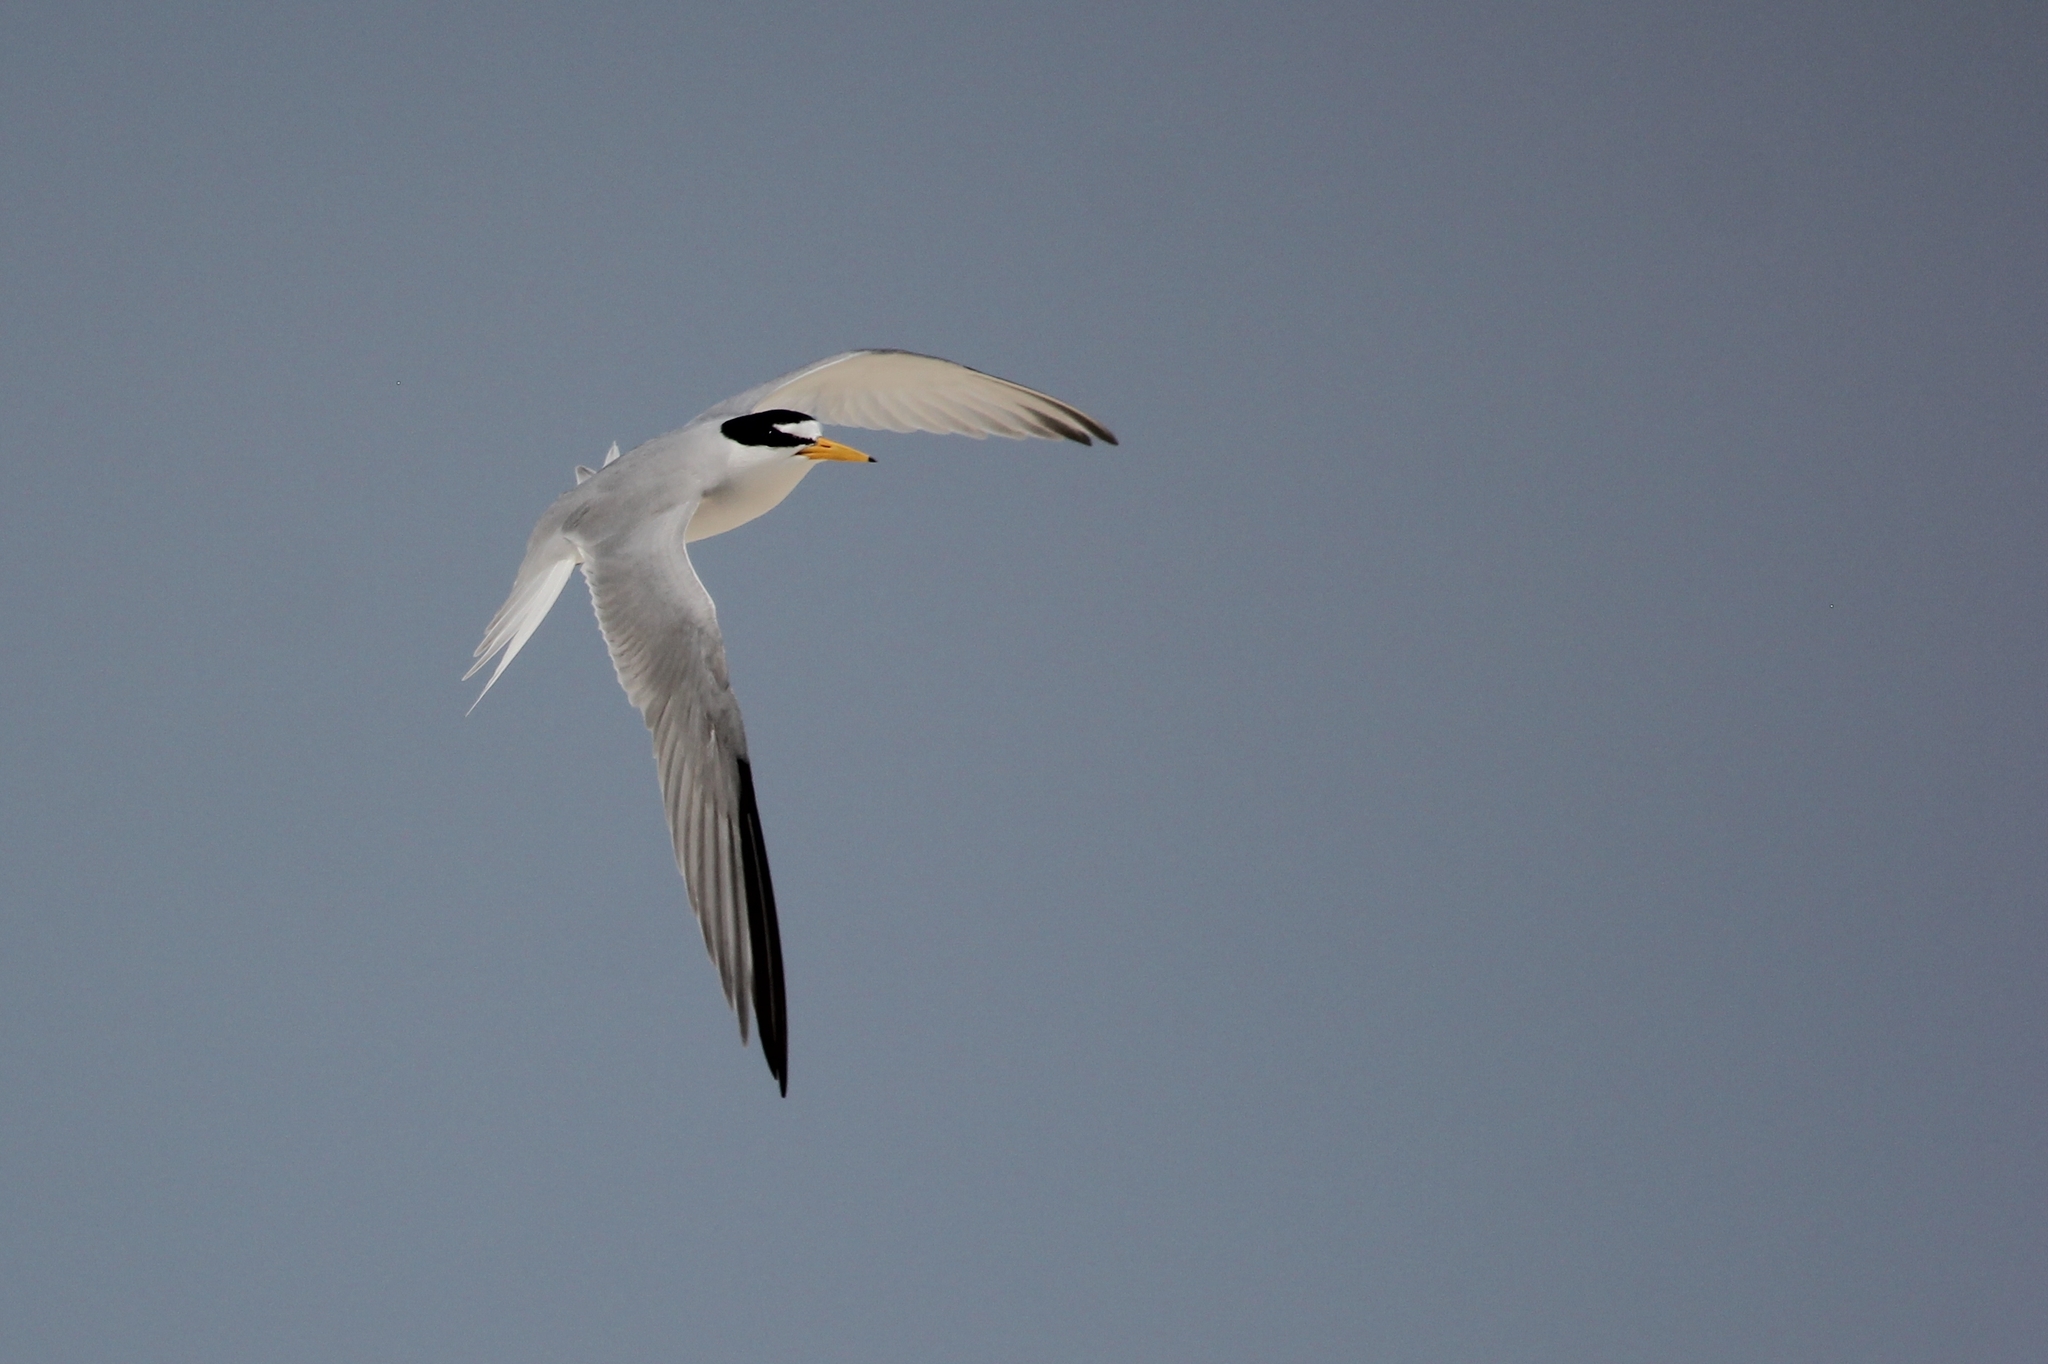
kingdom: Animalia
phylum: Chordata
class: Aves
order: Charadriiformes
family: Laridae
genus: Sternula
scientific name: Sternula antillarum
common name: Least tern
